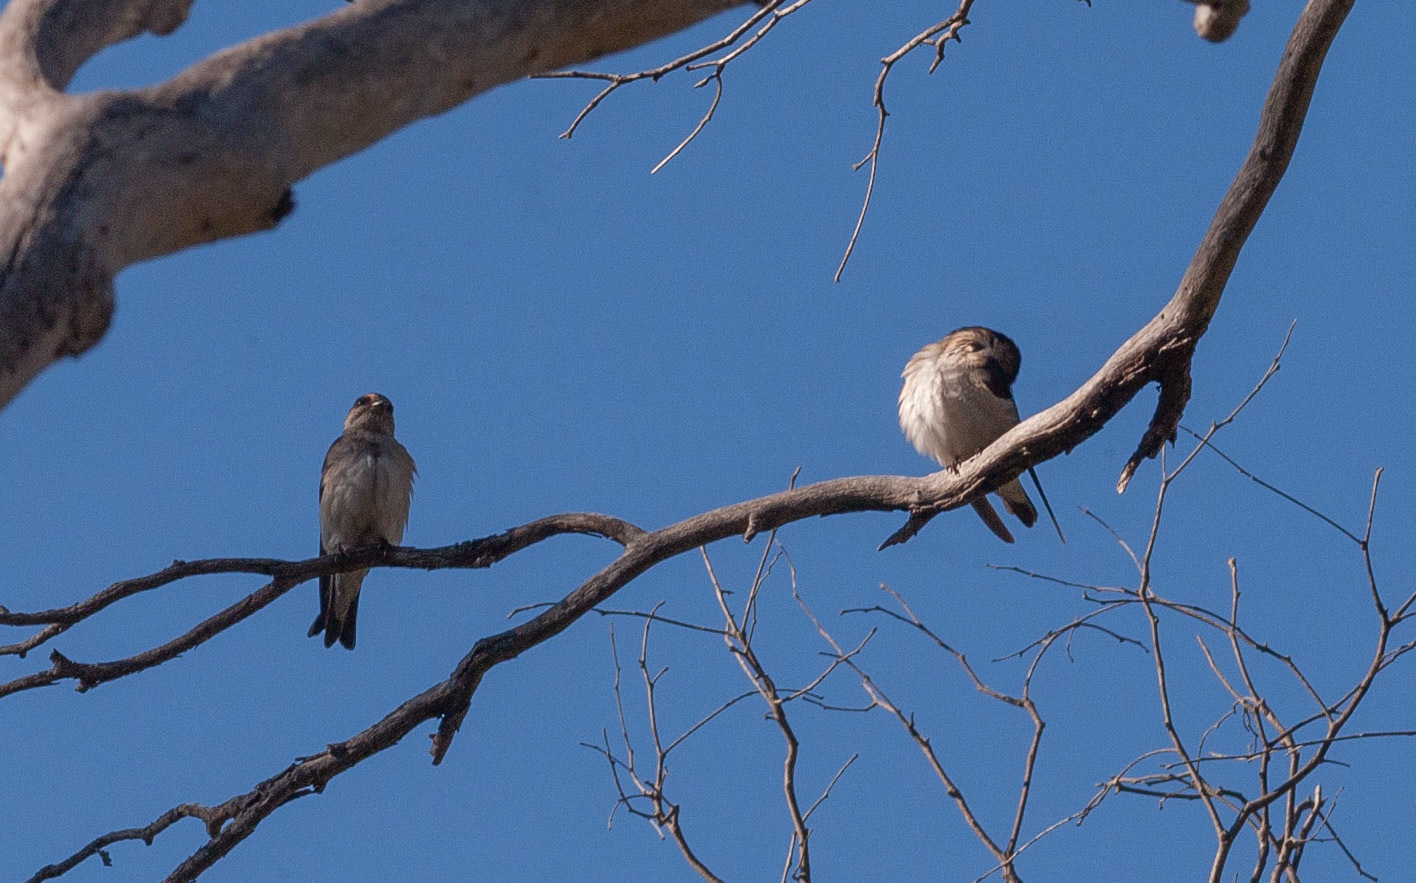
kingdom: Animalia
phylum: Chordata
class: Aves
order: Passeriformes
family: Hirundinidae
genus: Petrochelidon
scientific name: Petrochelidon nigricans
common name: Tree martin
